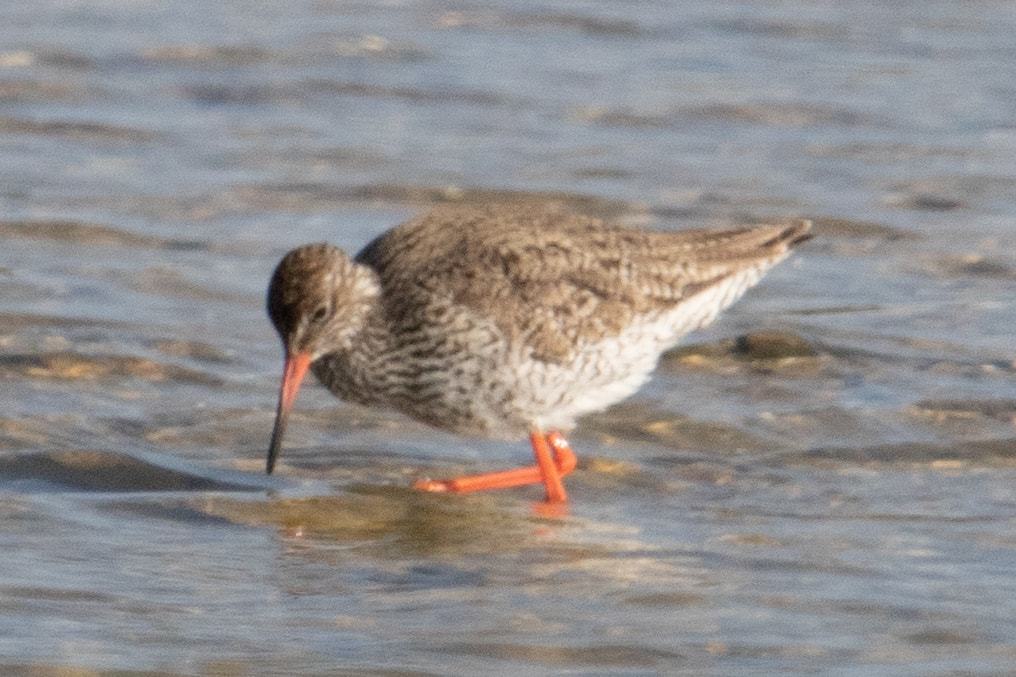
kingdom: Animalia
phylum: Chordata
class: Aves
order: Charadriiformes
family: Scolopacidae
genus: Tringa
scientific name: Tringa totanus
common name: Common redshank
